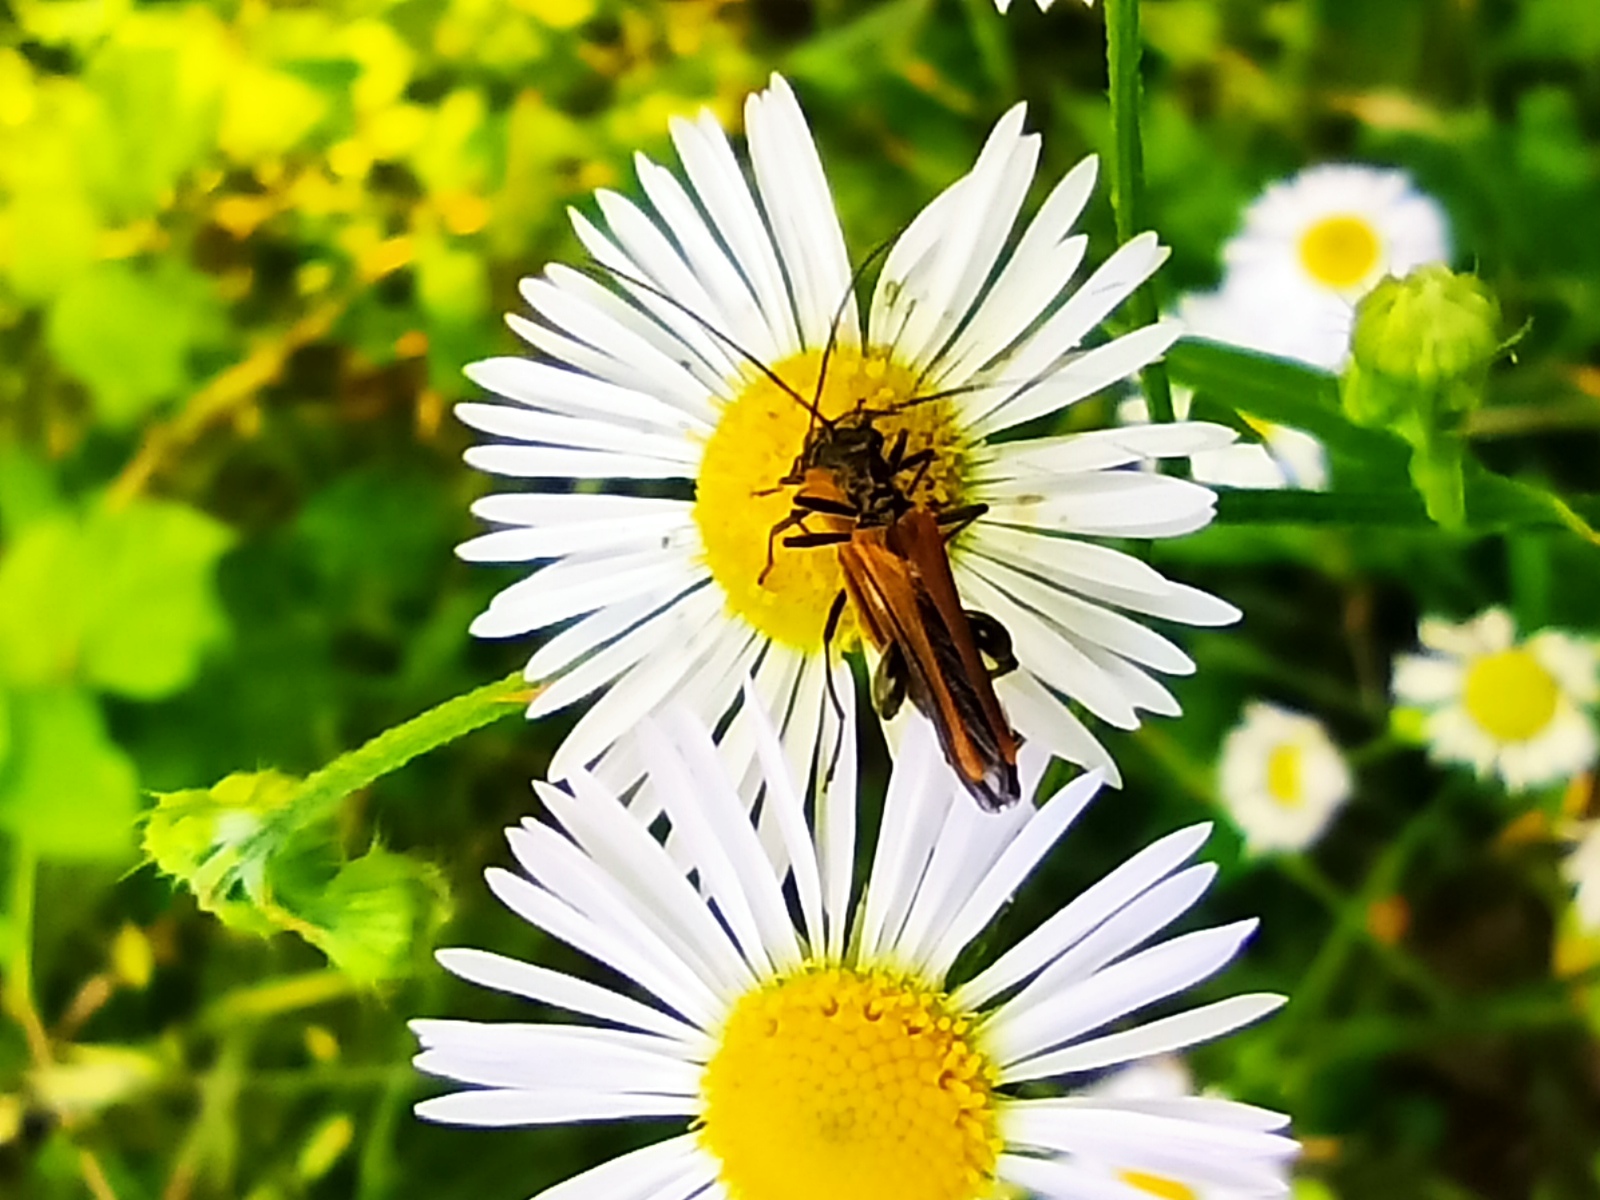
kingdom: Animalia
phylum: Arthropoda
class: Insecta
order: Coleoptera
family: Oedemeridae
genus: Oedemera
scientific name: Oedemera femorata
